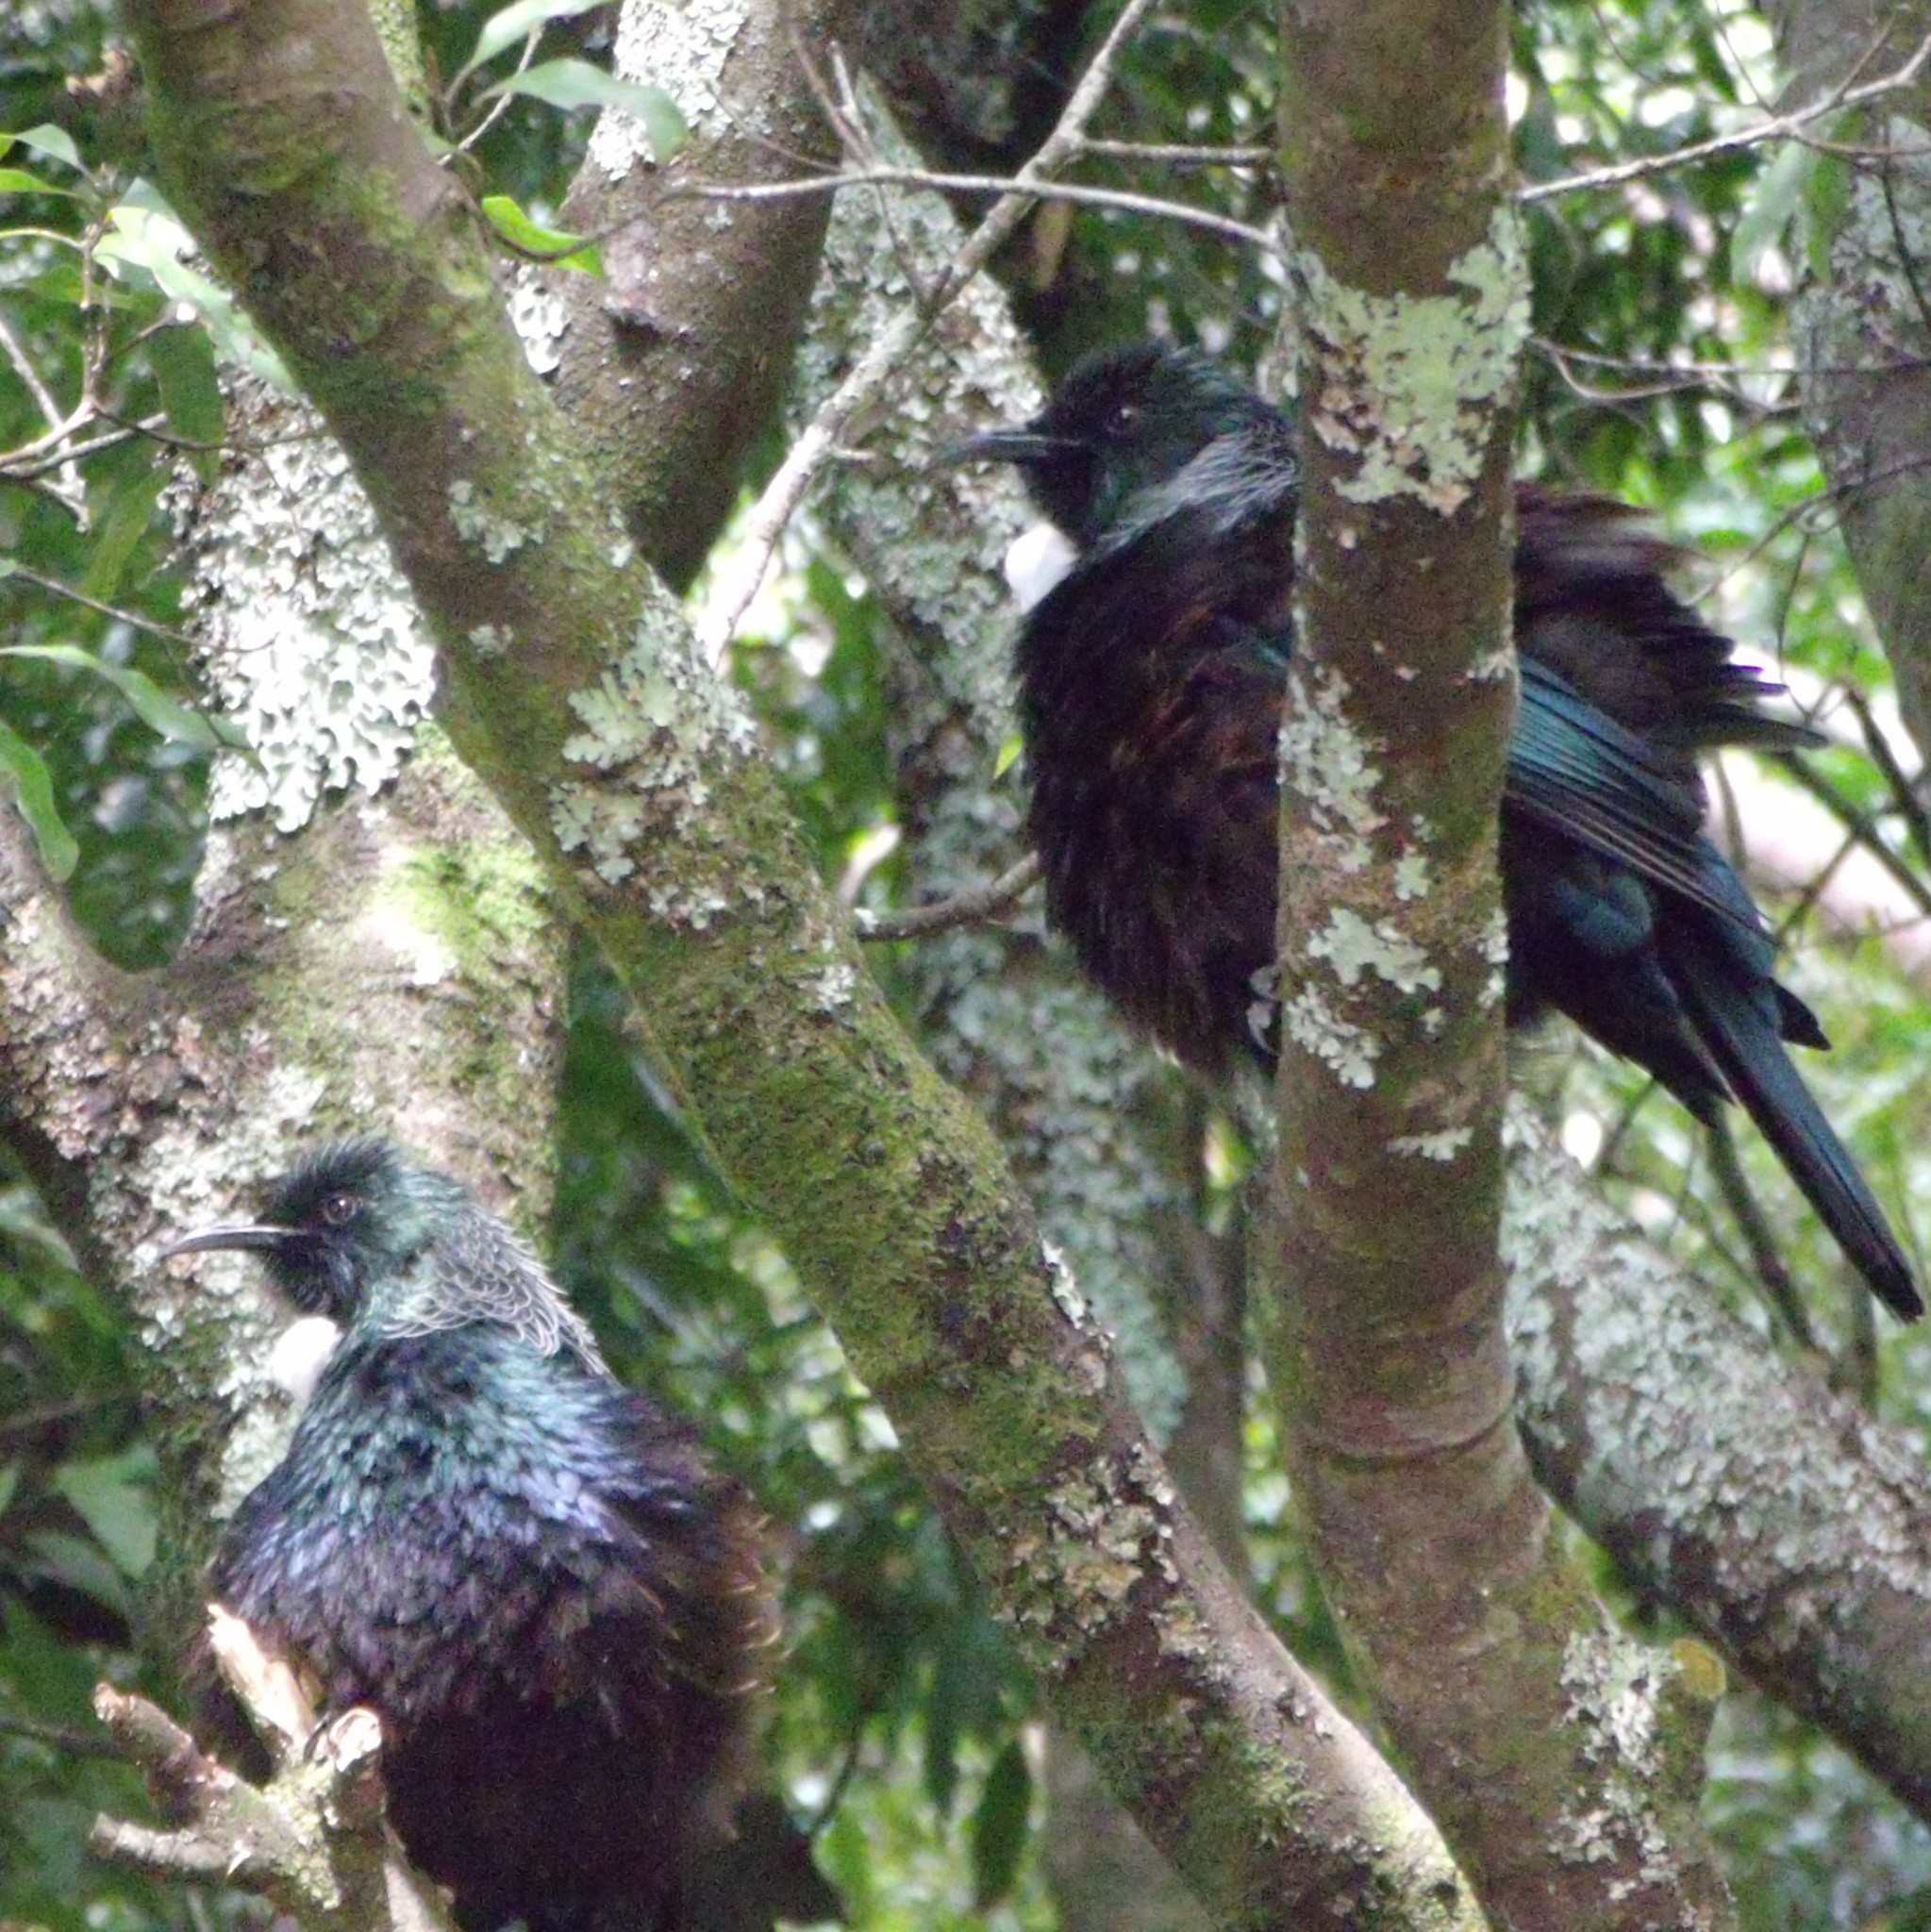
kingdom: Animalia
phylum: Chordata
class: Aves
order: Passeriformes
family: Meliphagidae
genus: Prosthemadera
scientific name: Prosthemadera novaeseelandiae
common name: Tui
